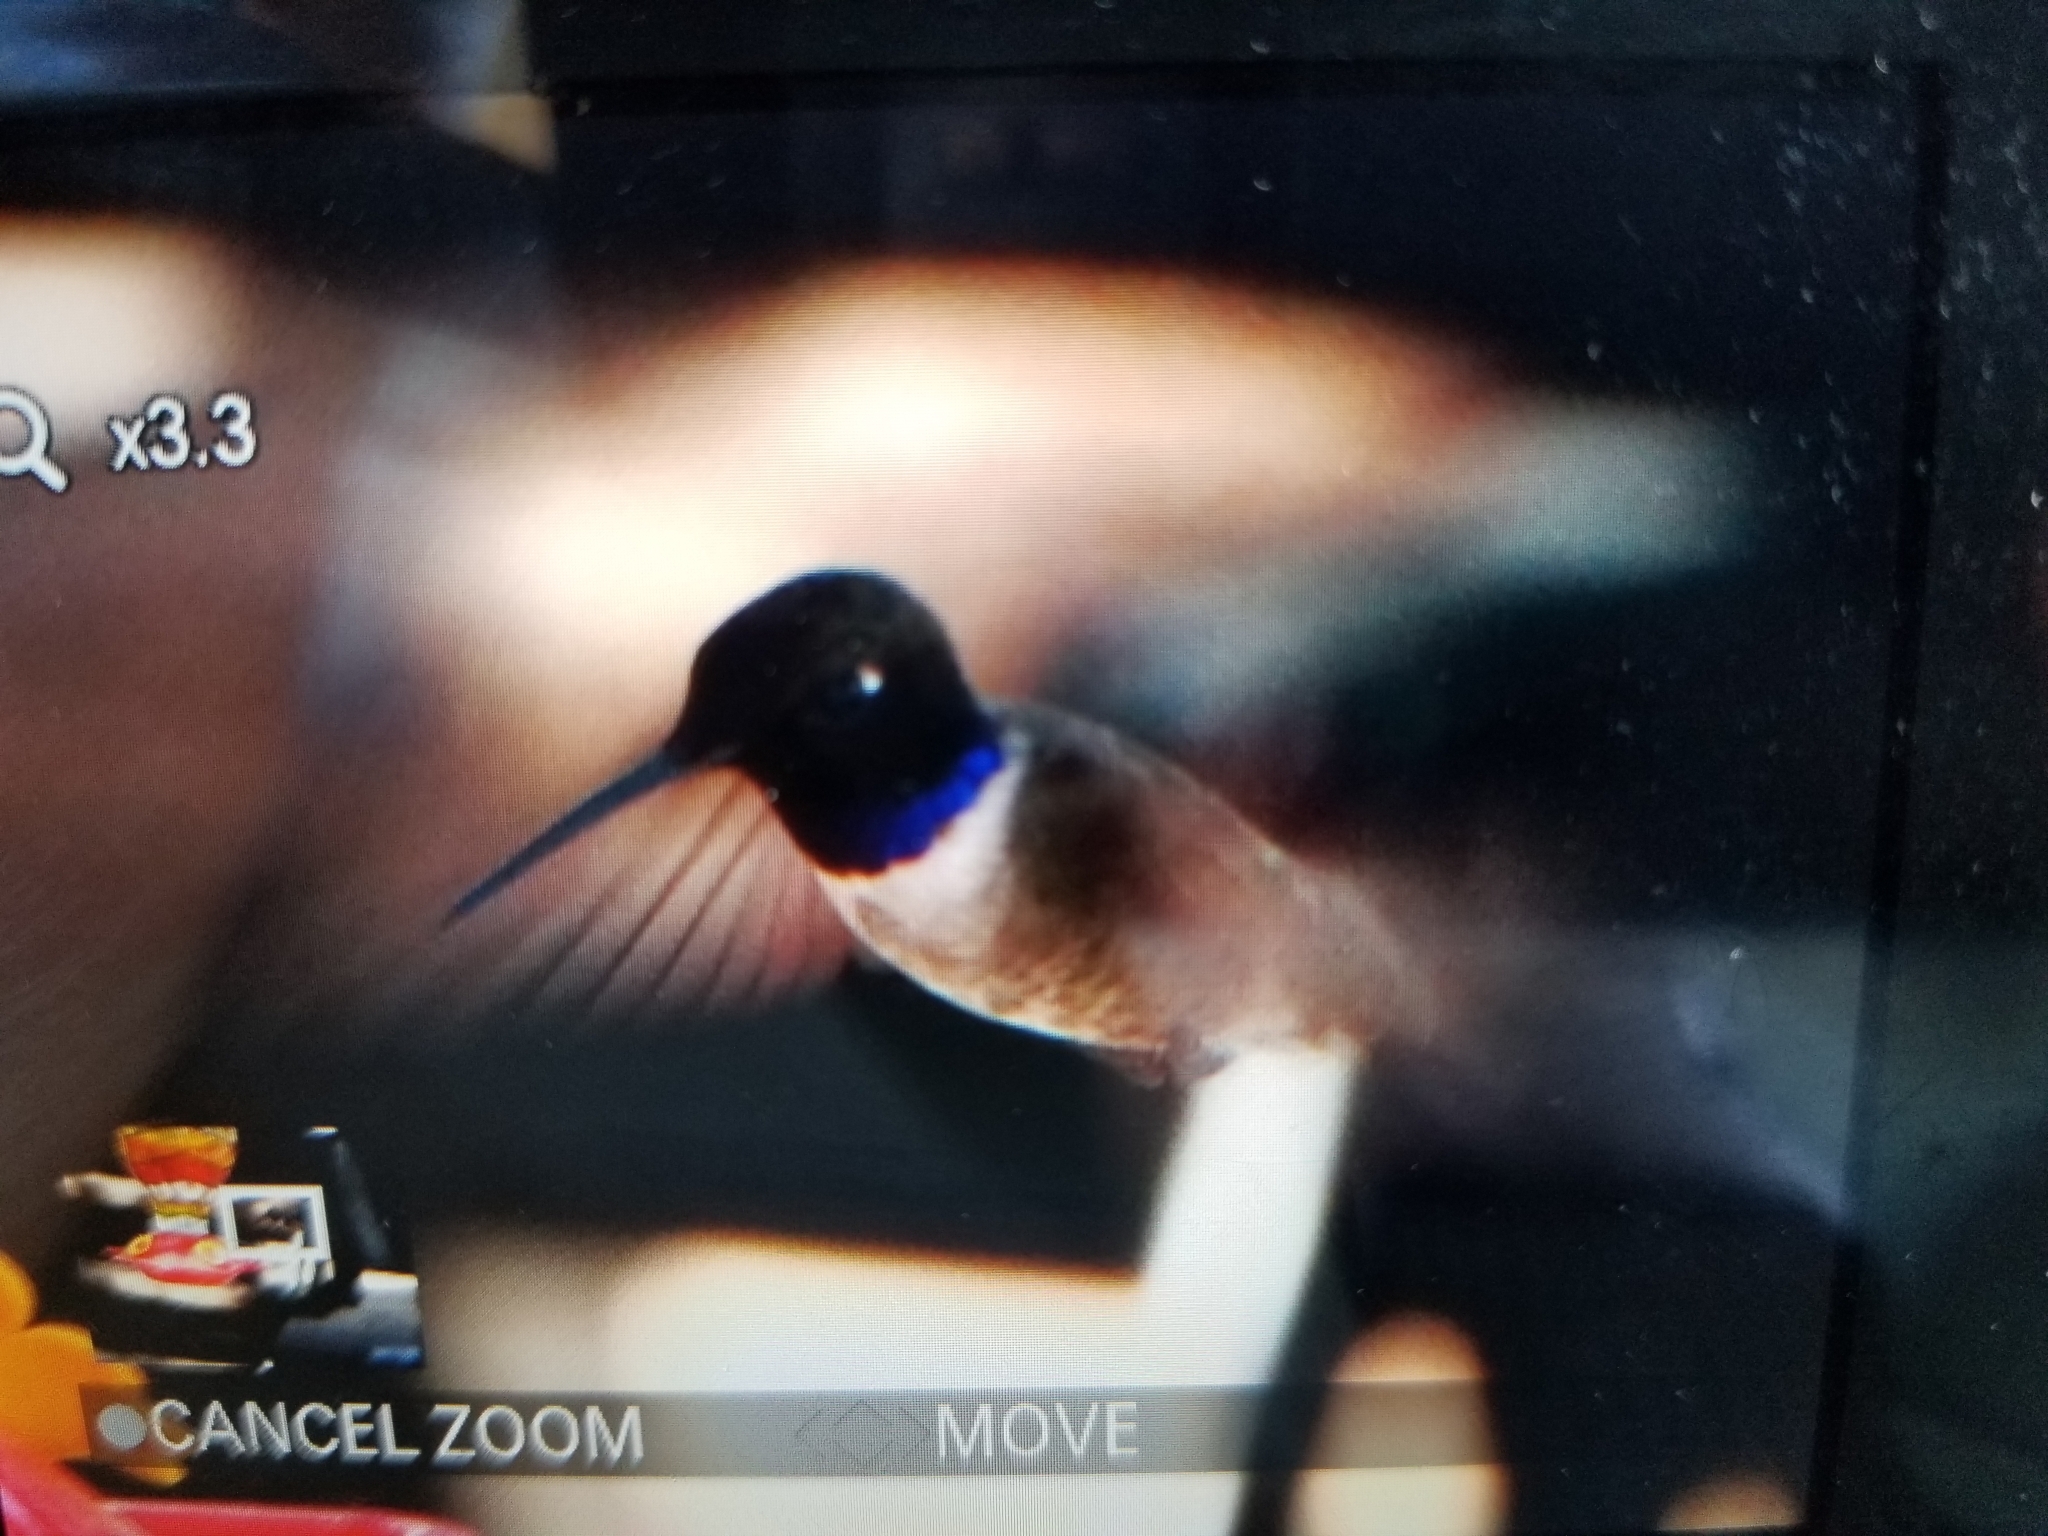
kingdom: Animalia
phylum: Chordata
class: Aves
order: Apodiformes
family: Trochilidae
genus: Archilochus
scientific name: Archilochus alexandri
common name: Black-chinned hummingbird
